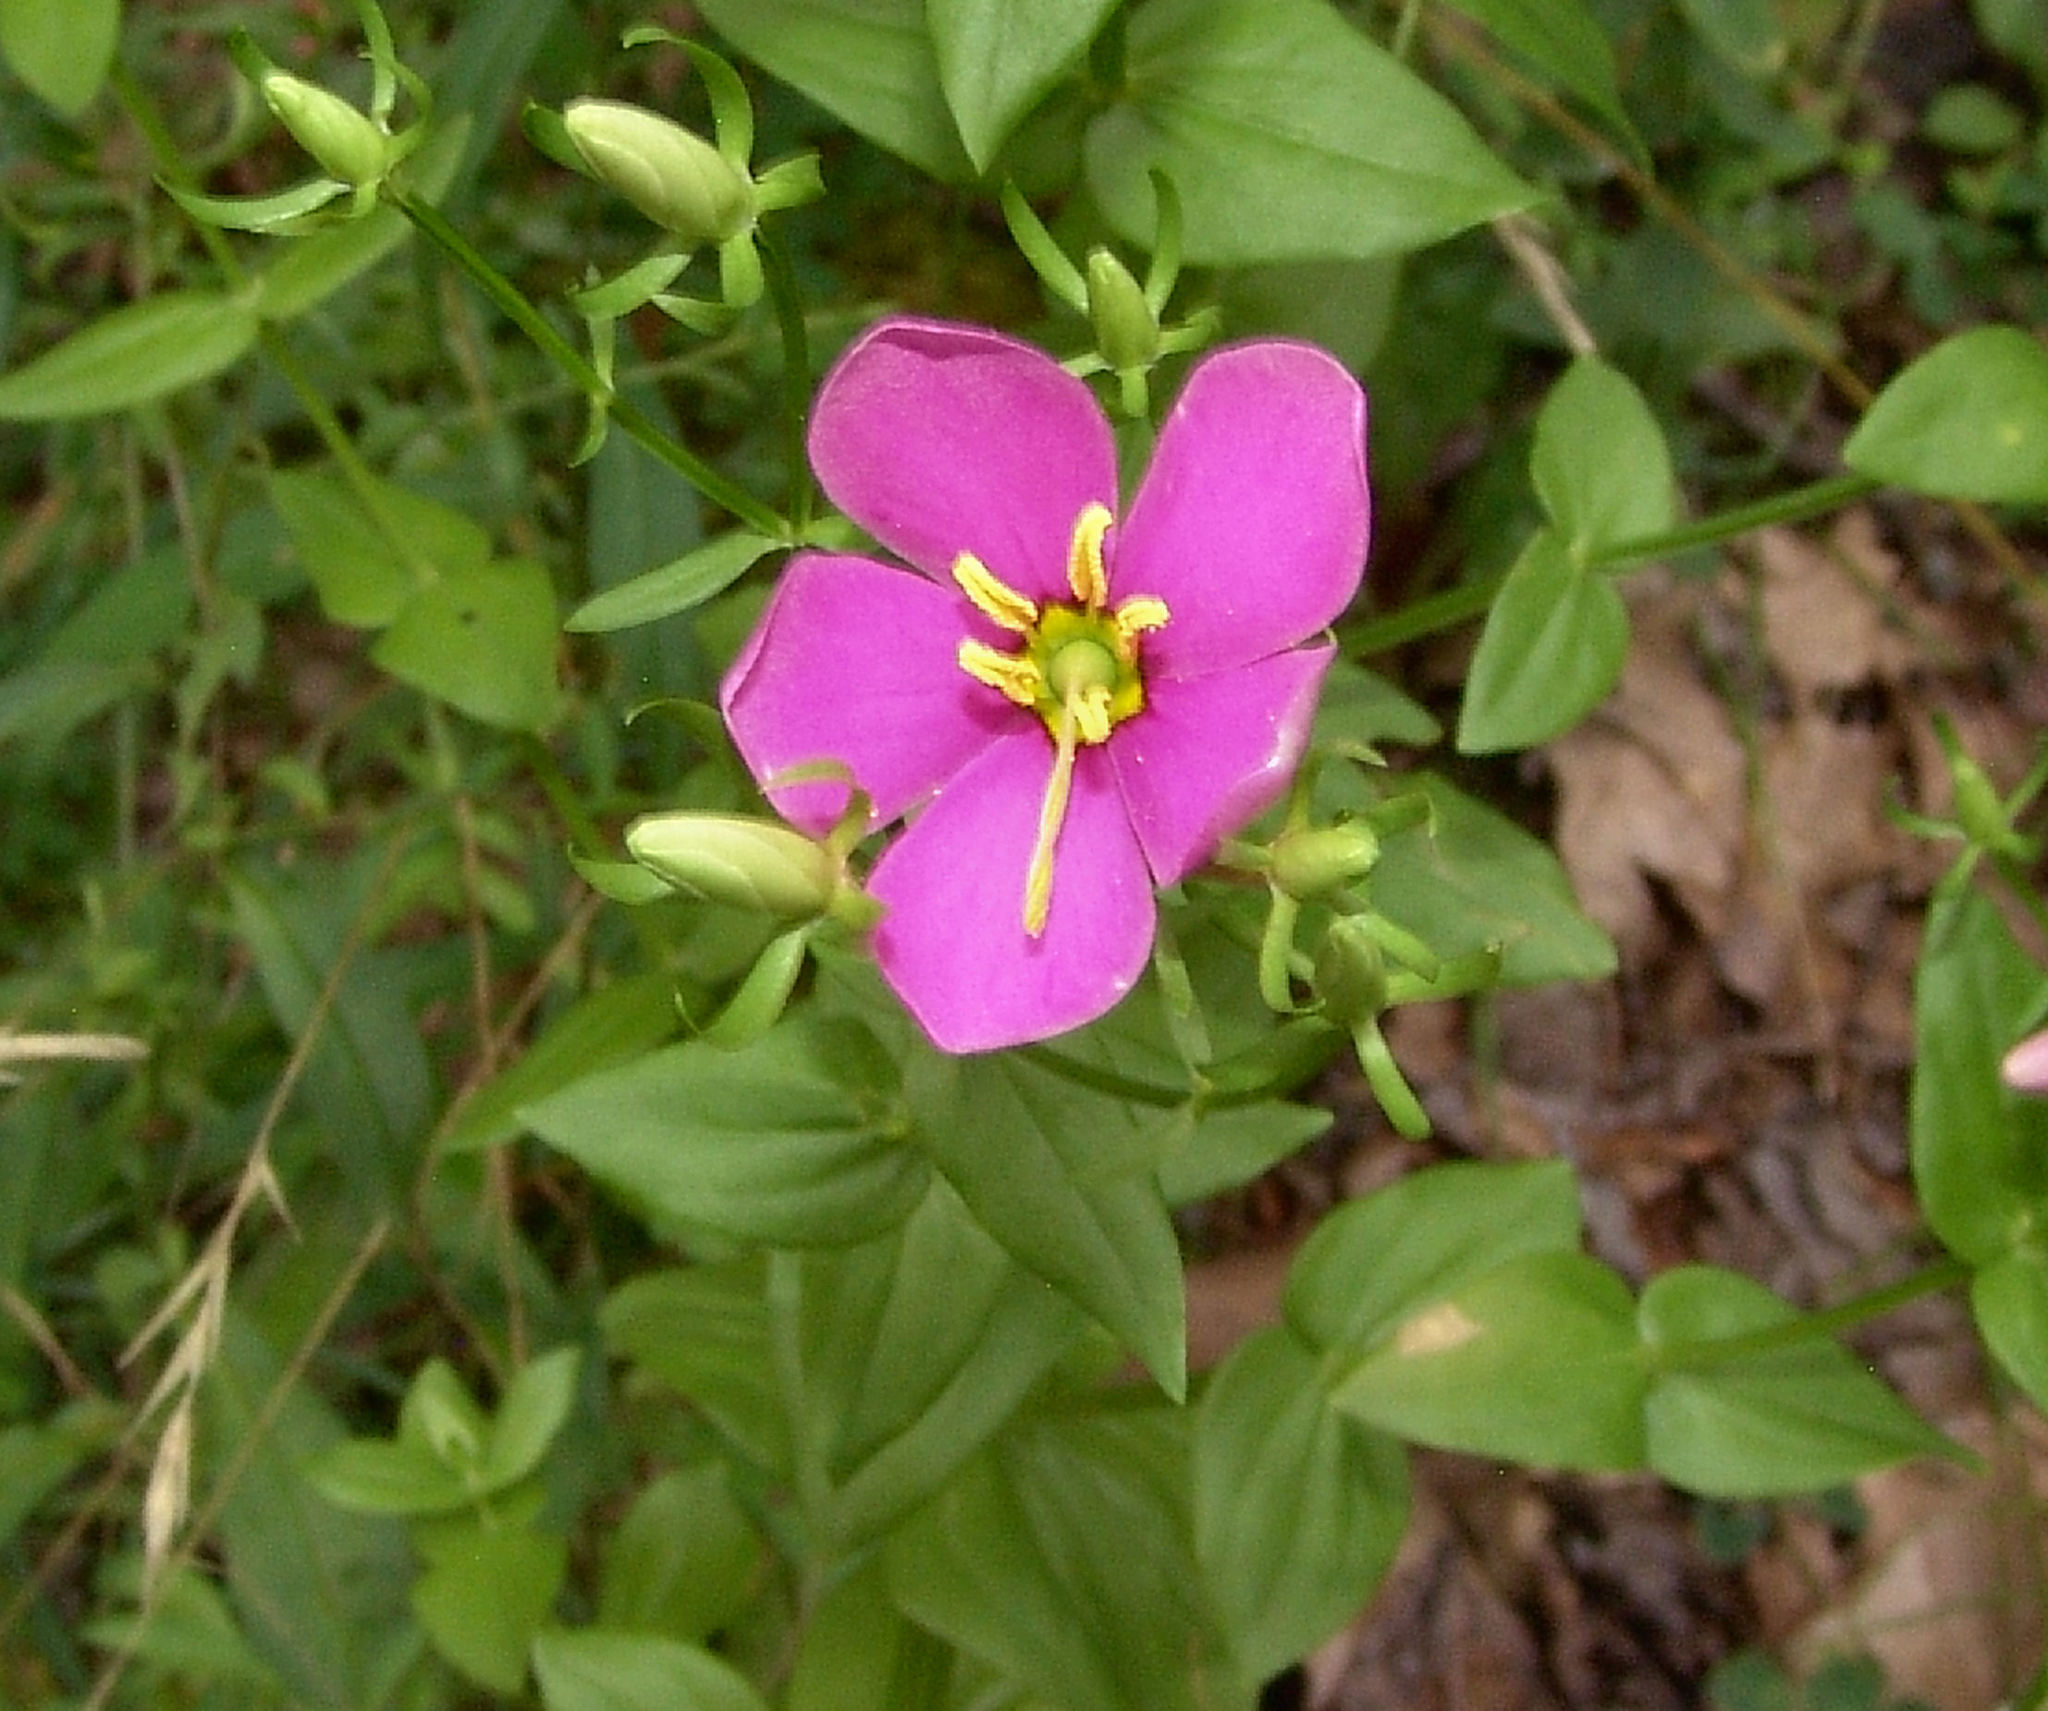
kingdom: Plantae
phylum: Tracheophyta
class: Magnoliopsida
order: Gentianales
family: Gentianaceae
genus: Sabatia
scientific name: Sabatia angularis
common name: Rose-pink
